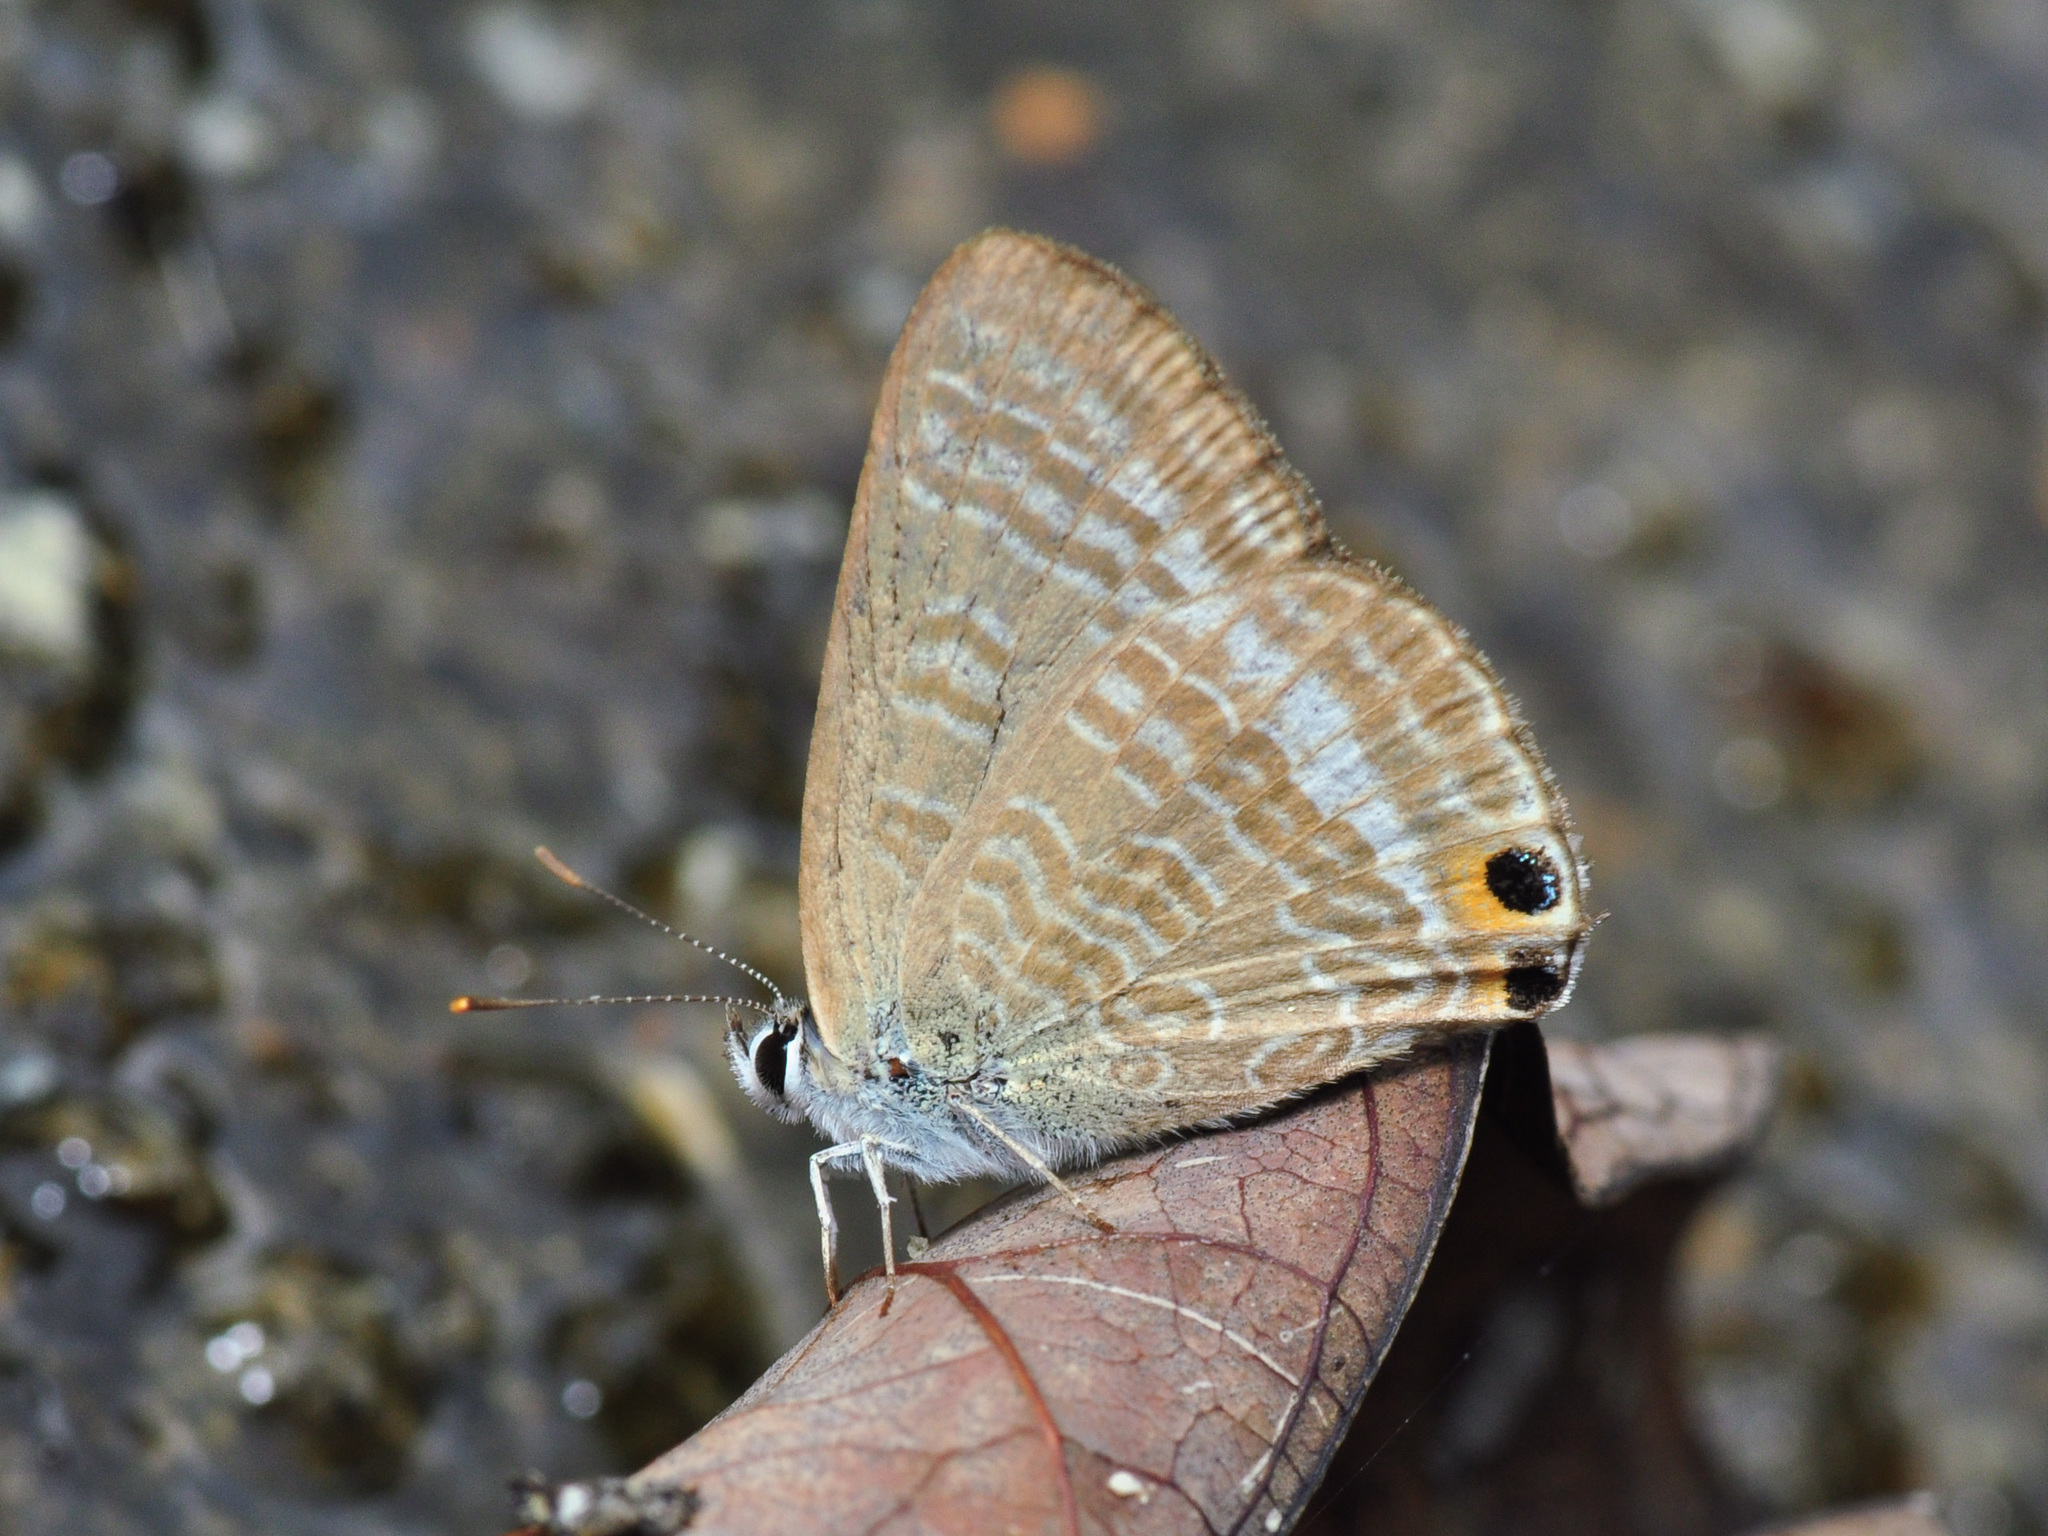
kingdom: Animalia
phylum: Arthropoda
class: Insecta
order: Lepidoptera
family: Lycaenidae
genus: Lampides
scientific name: Lampides boeticus
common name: Long-tailed blue
